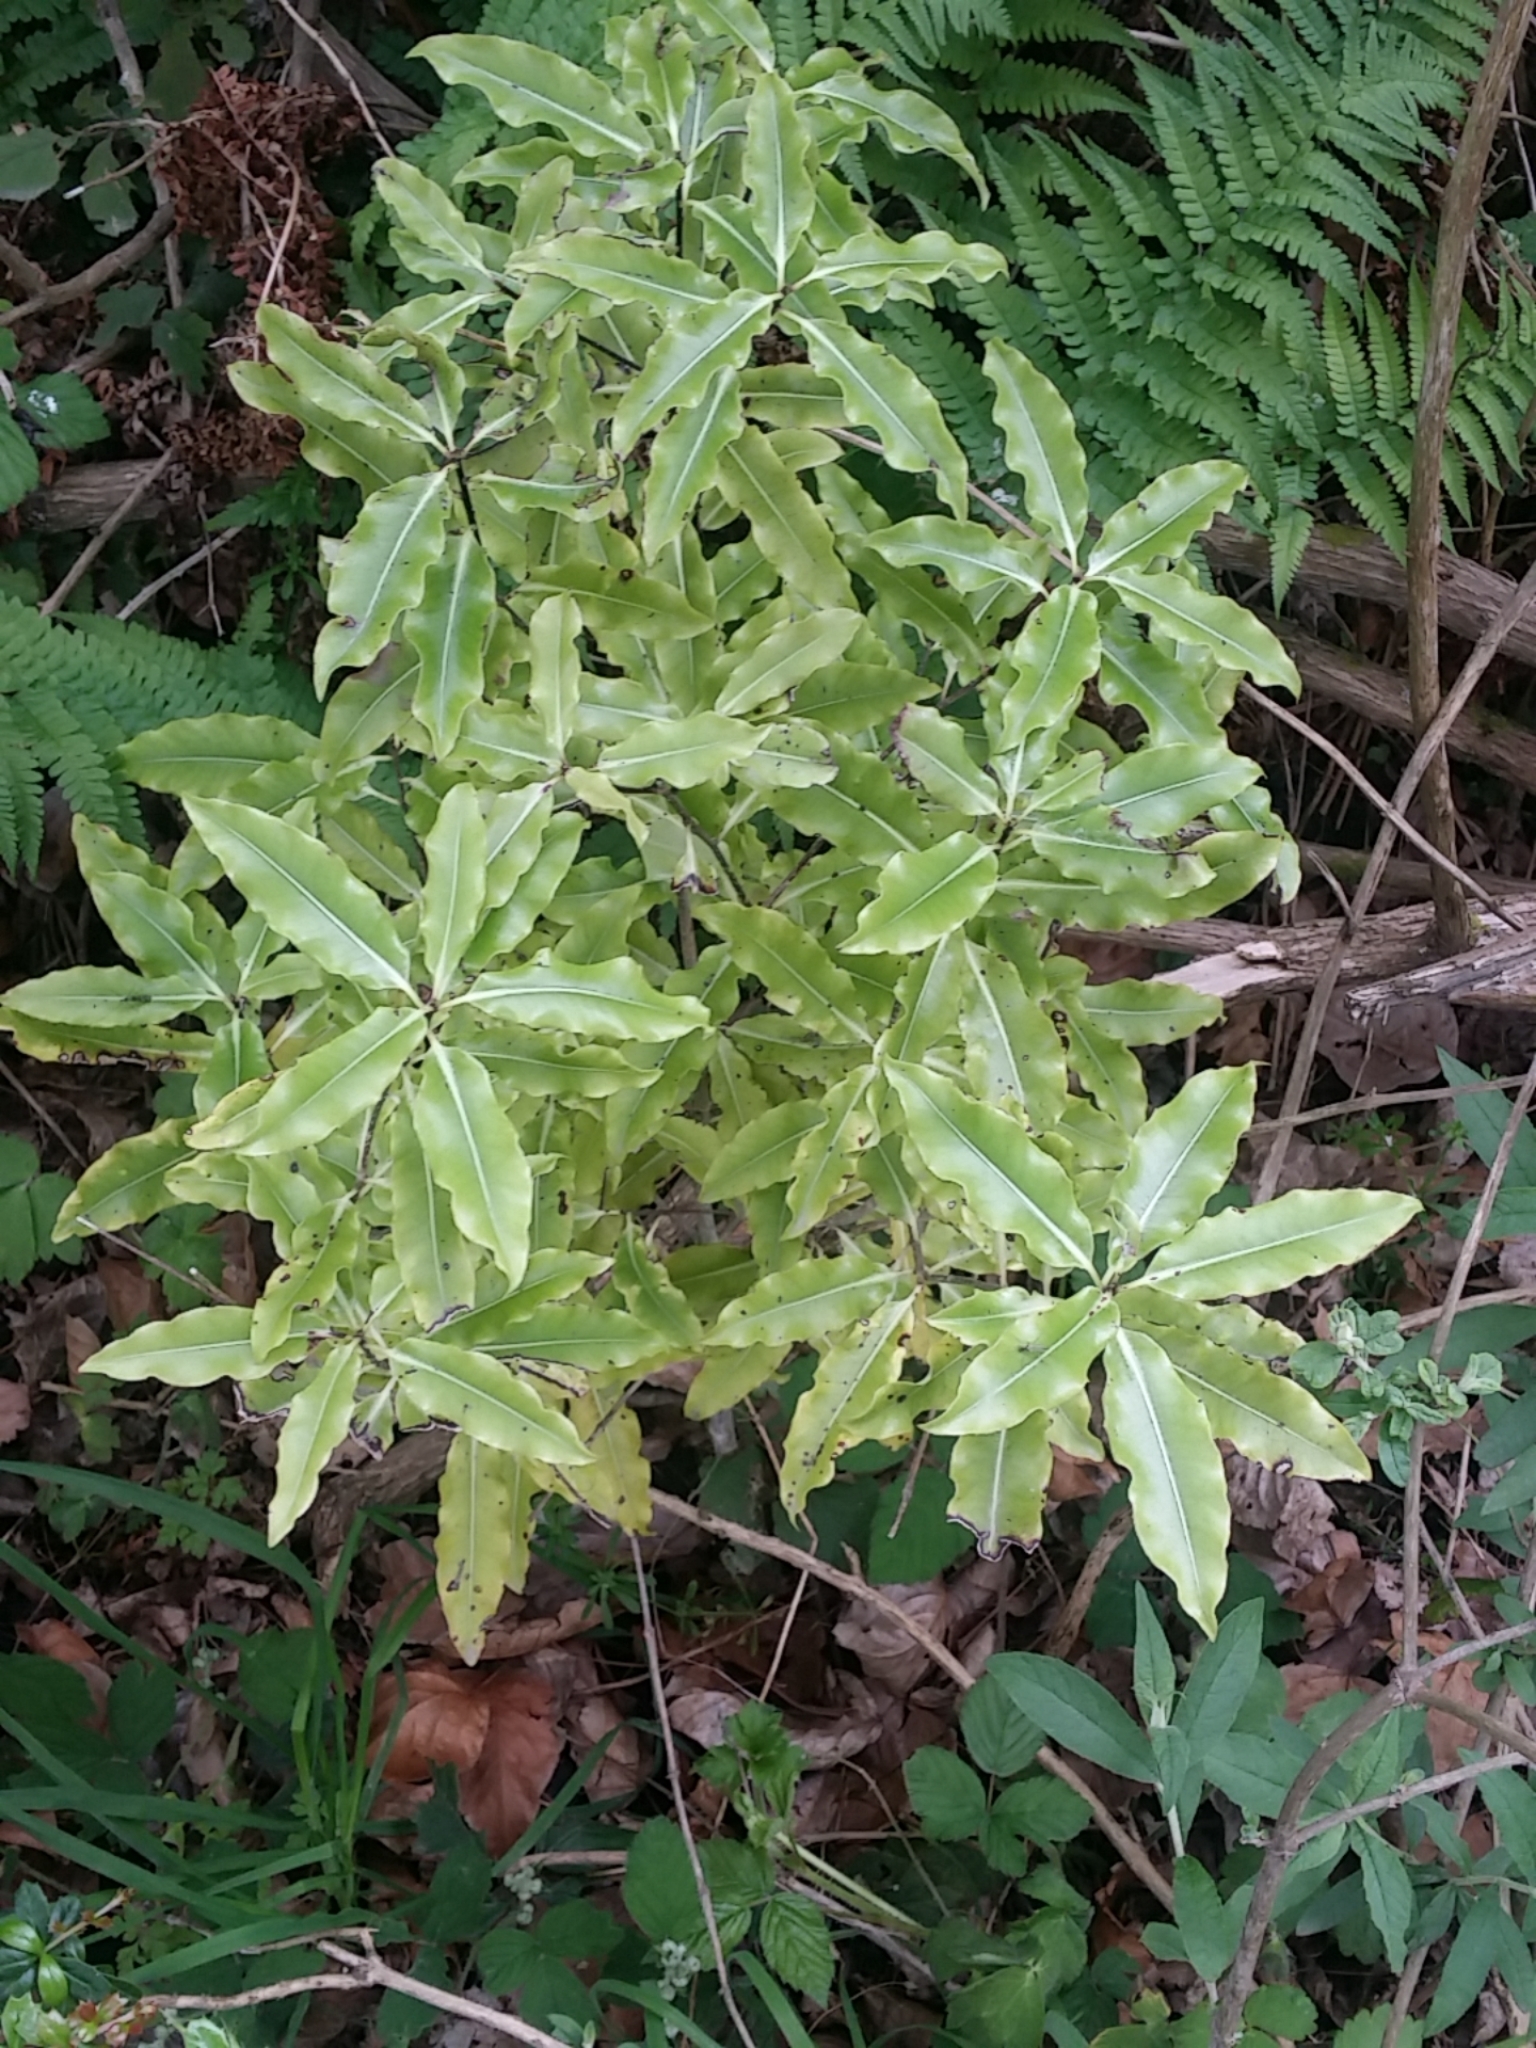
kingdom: Plantae
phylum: Tracheophyta
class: Magnoliopsida
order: Apiales
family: Pittosporaceae
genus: Pittosporum
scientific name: Pittosporum eugenioides
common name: Lemonwood
